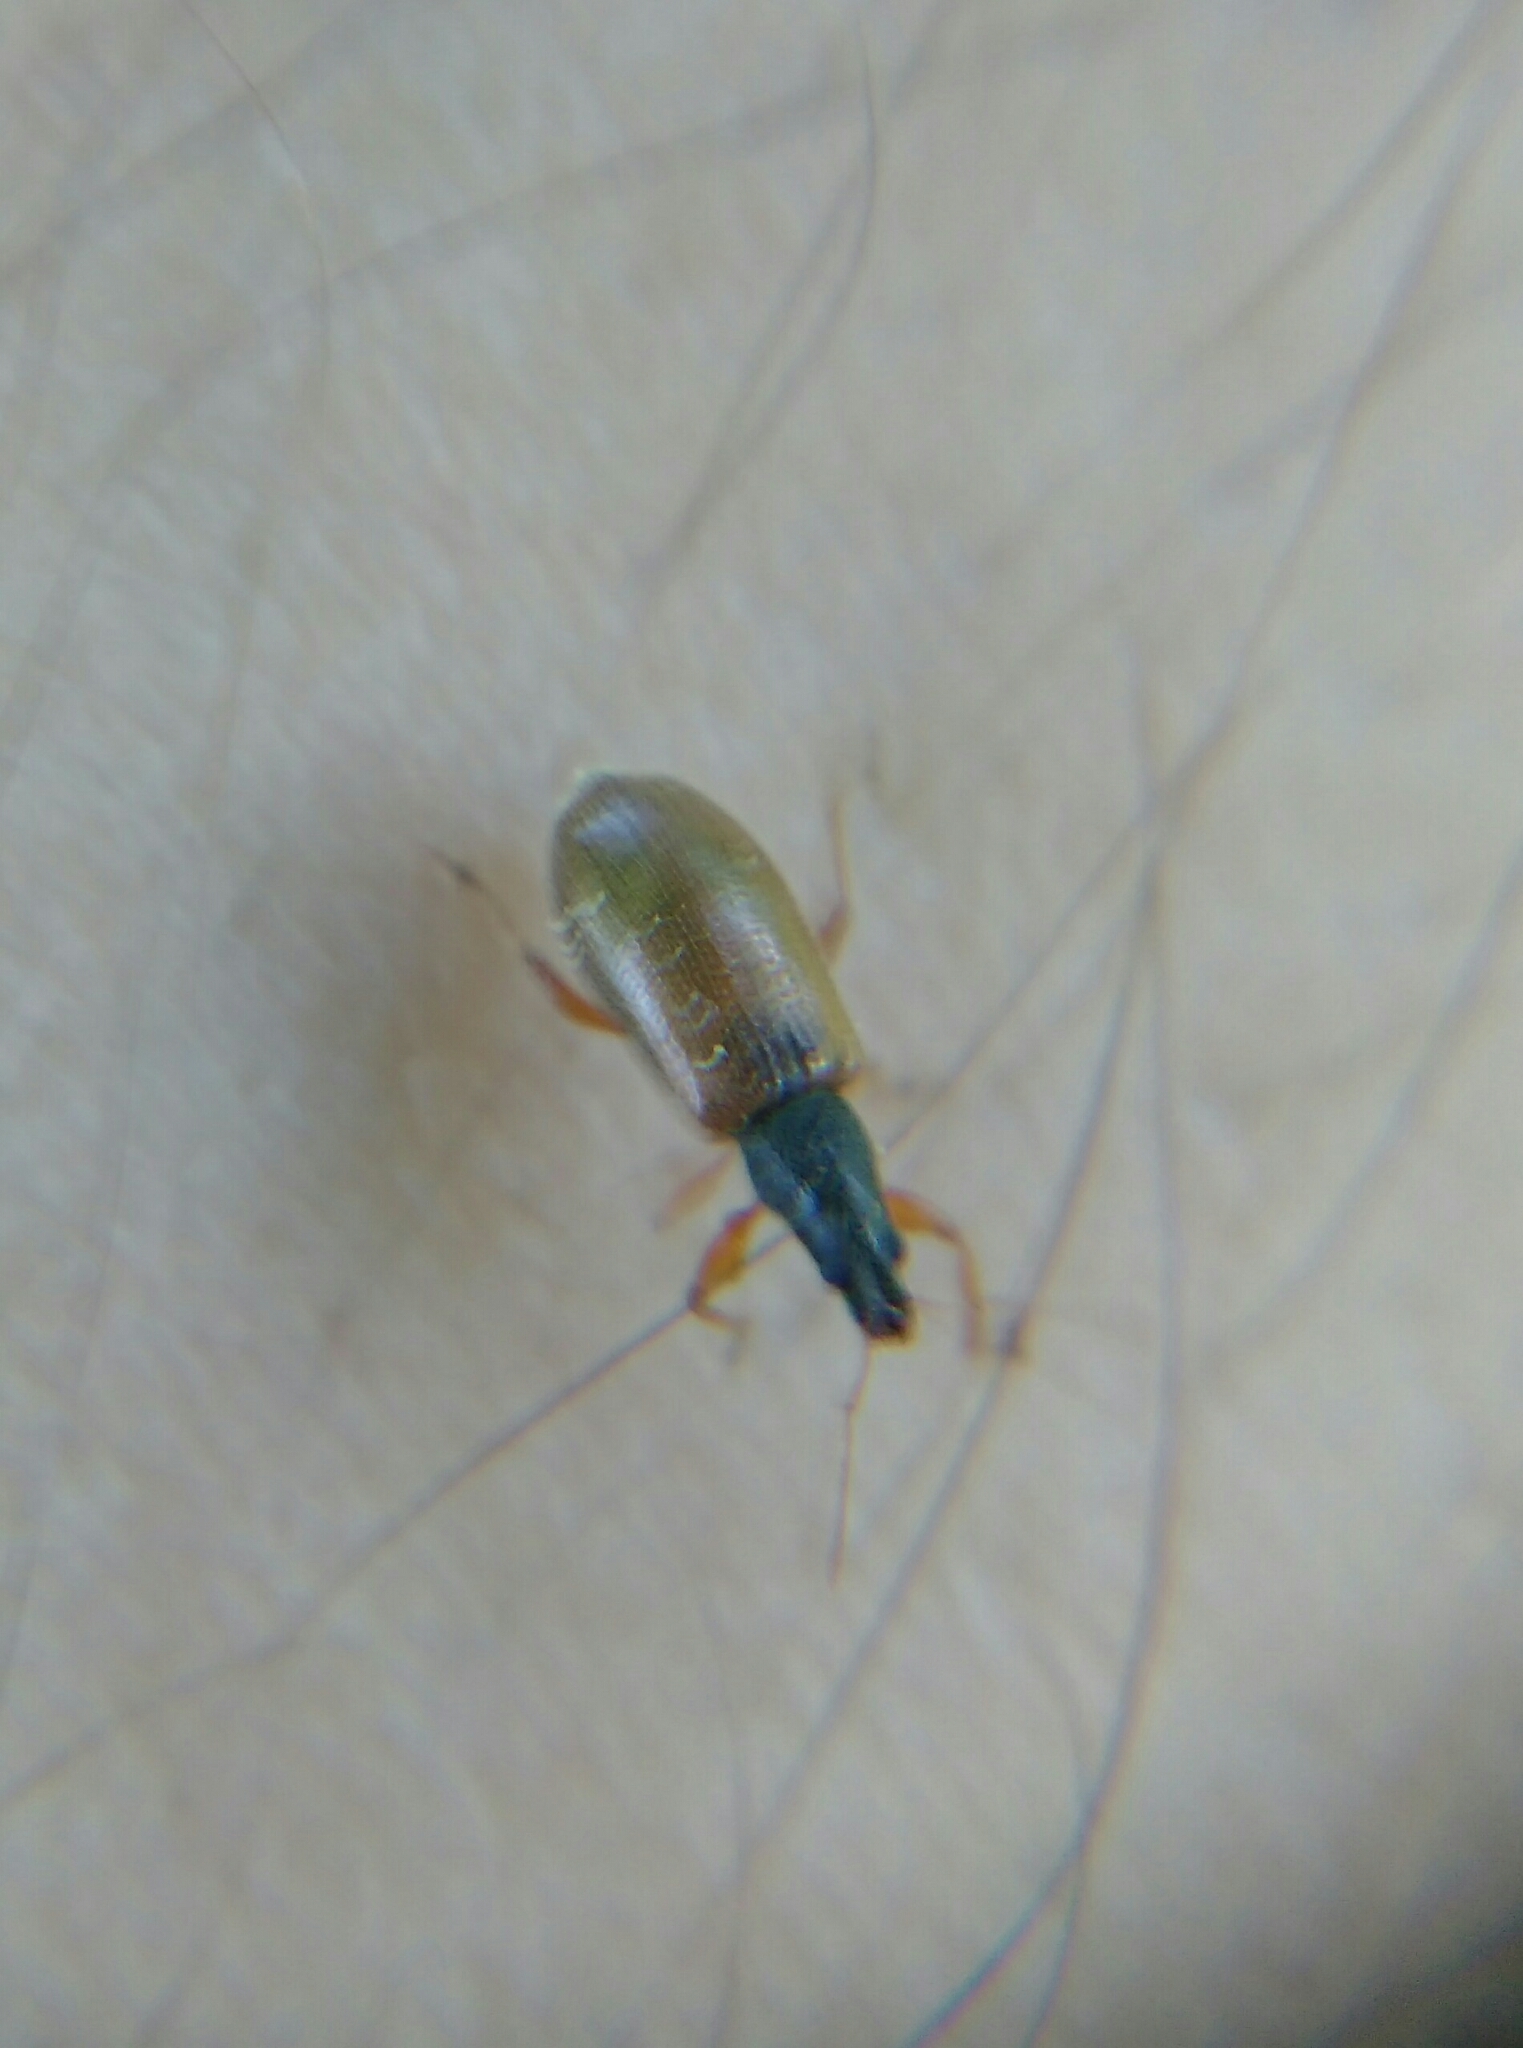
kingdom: Animalia
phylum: Arthropoda
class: Insecta
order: Coleoptera
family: Curculionidae
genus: Phyllobius
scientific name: Phyllobius oblongus
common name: Brown leaf weevil
